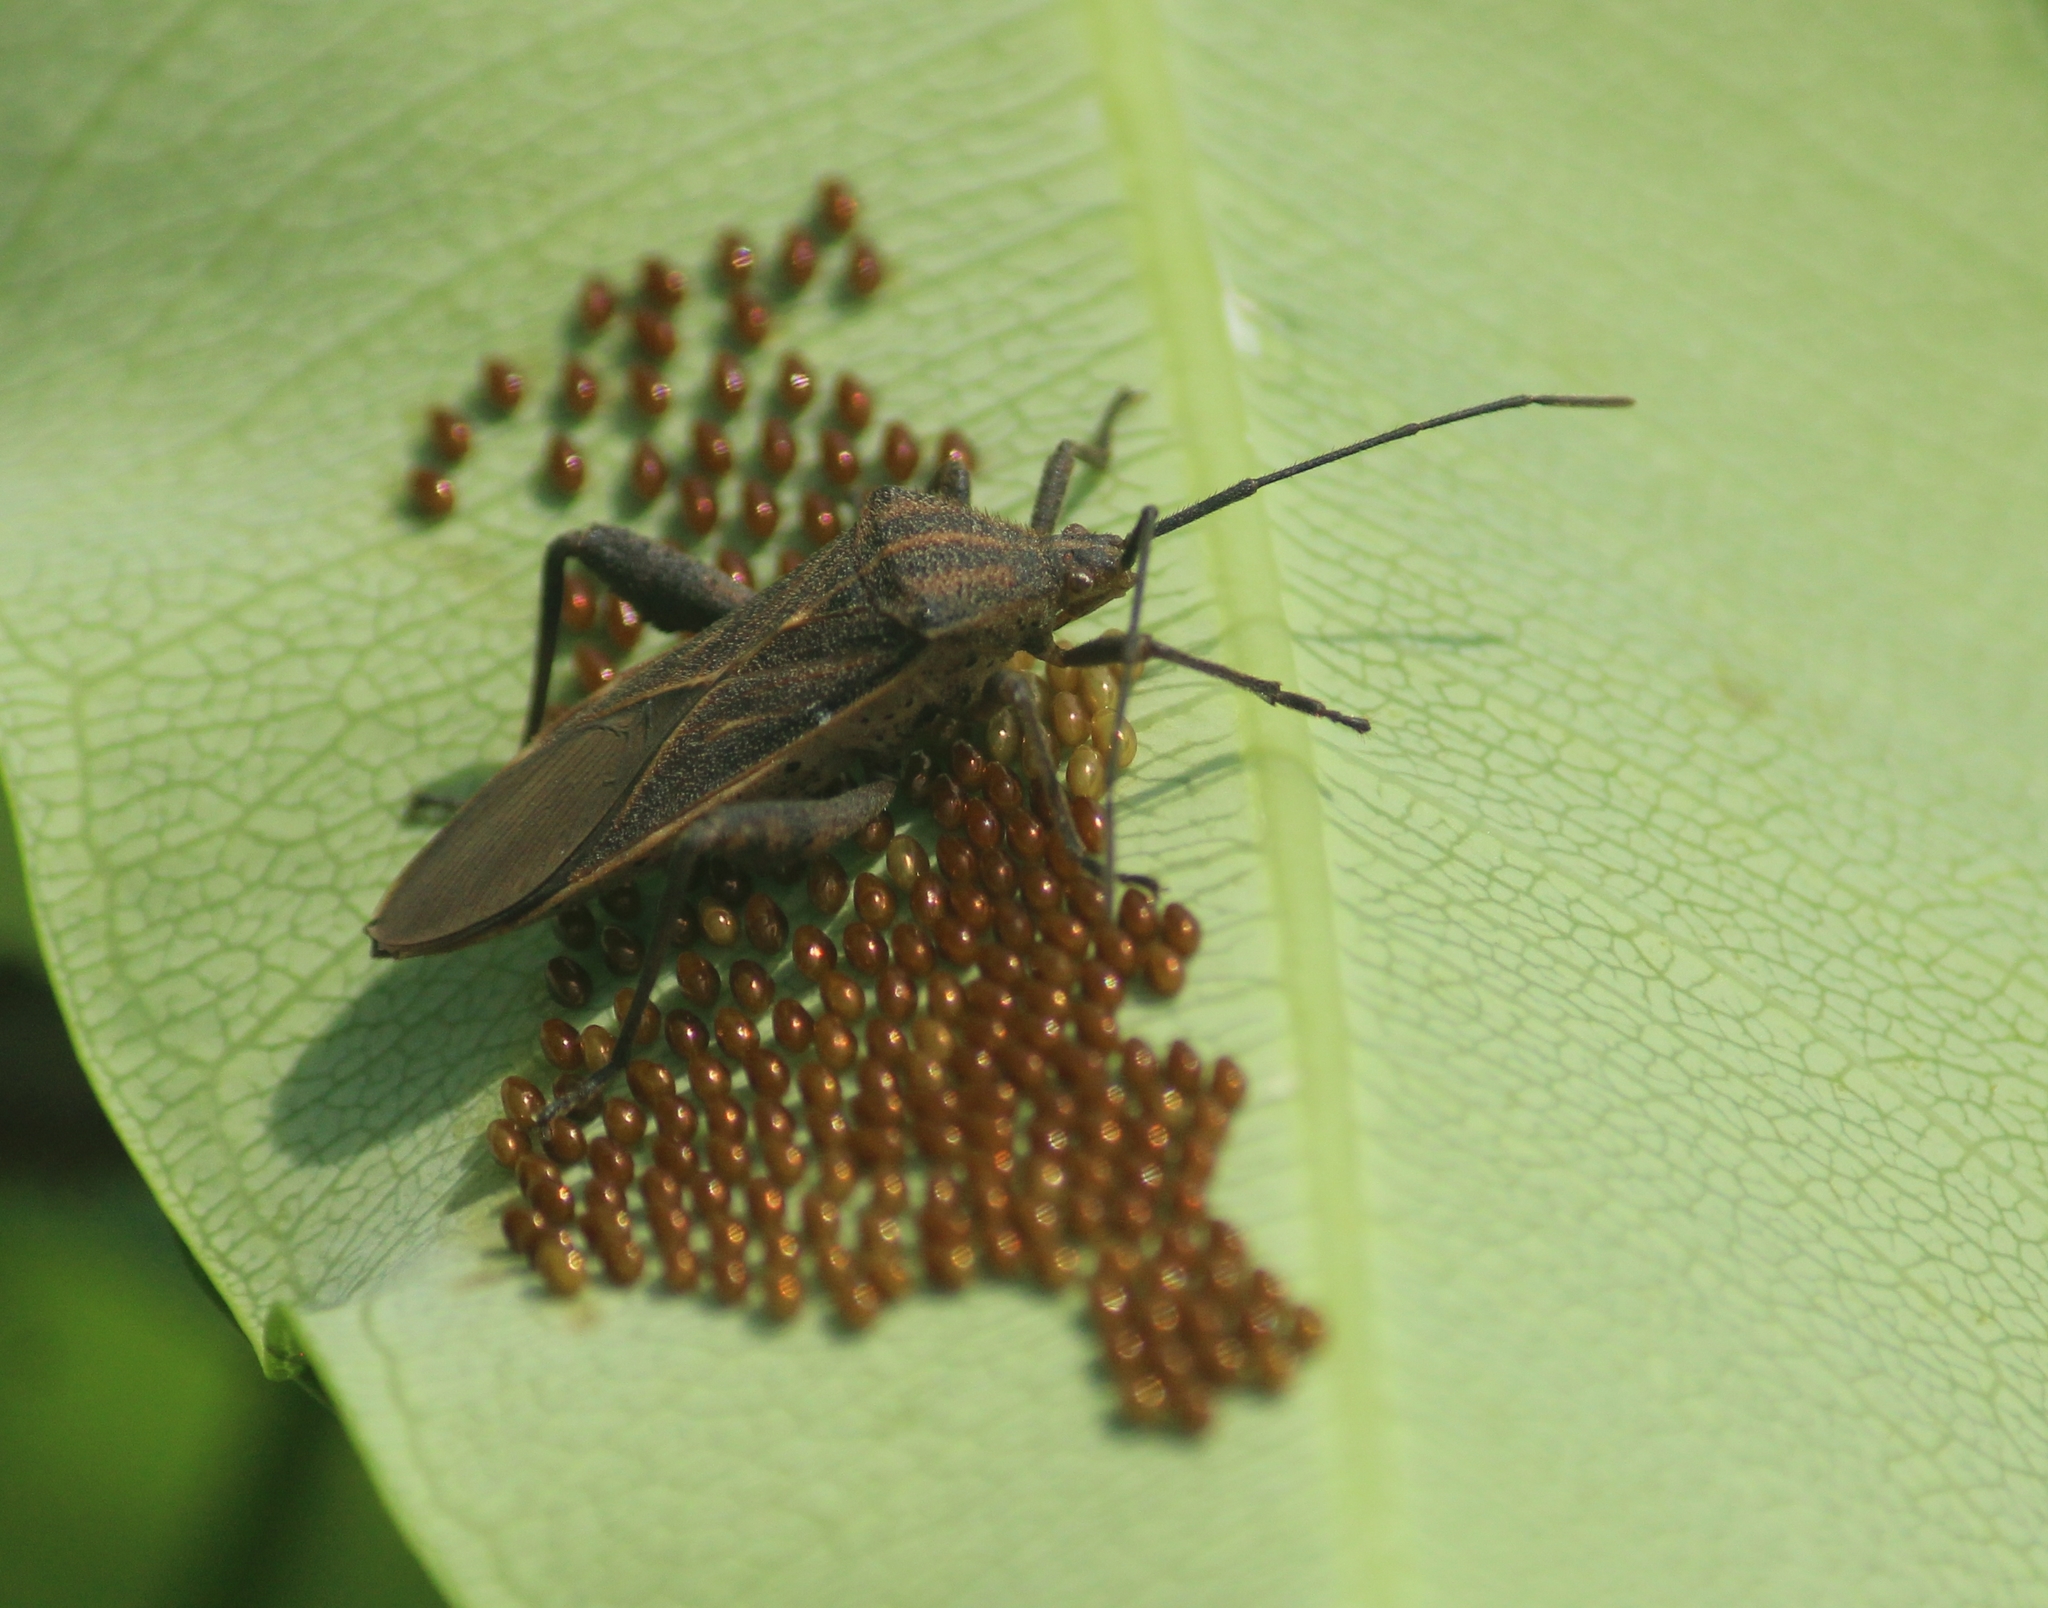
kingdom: Animalia
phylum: Arthropoda
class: Insecta
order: Hemiptera
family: Coreidae
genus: Physomerus
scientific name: Physomerus grossipes
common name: Squash bug
